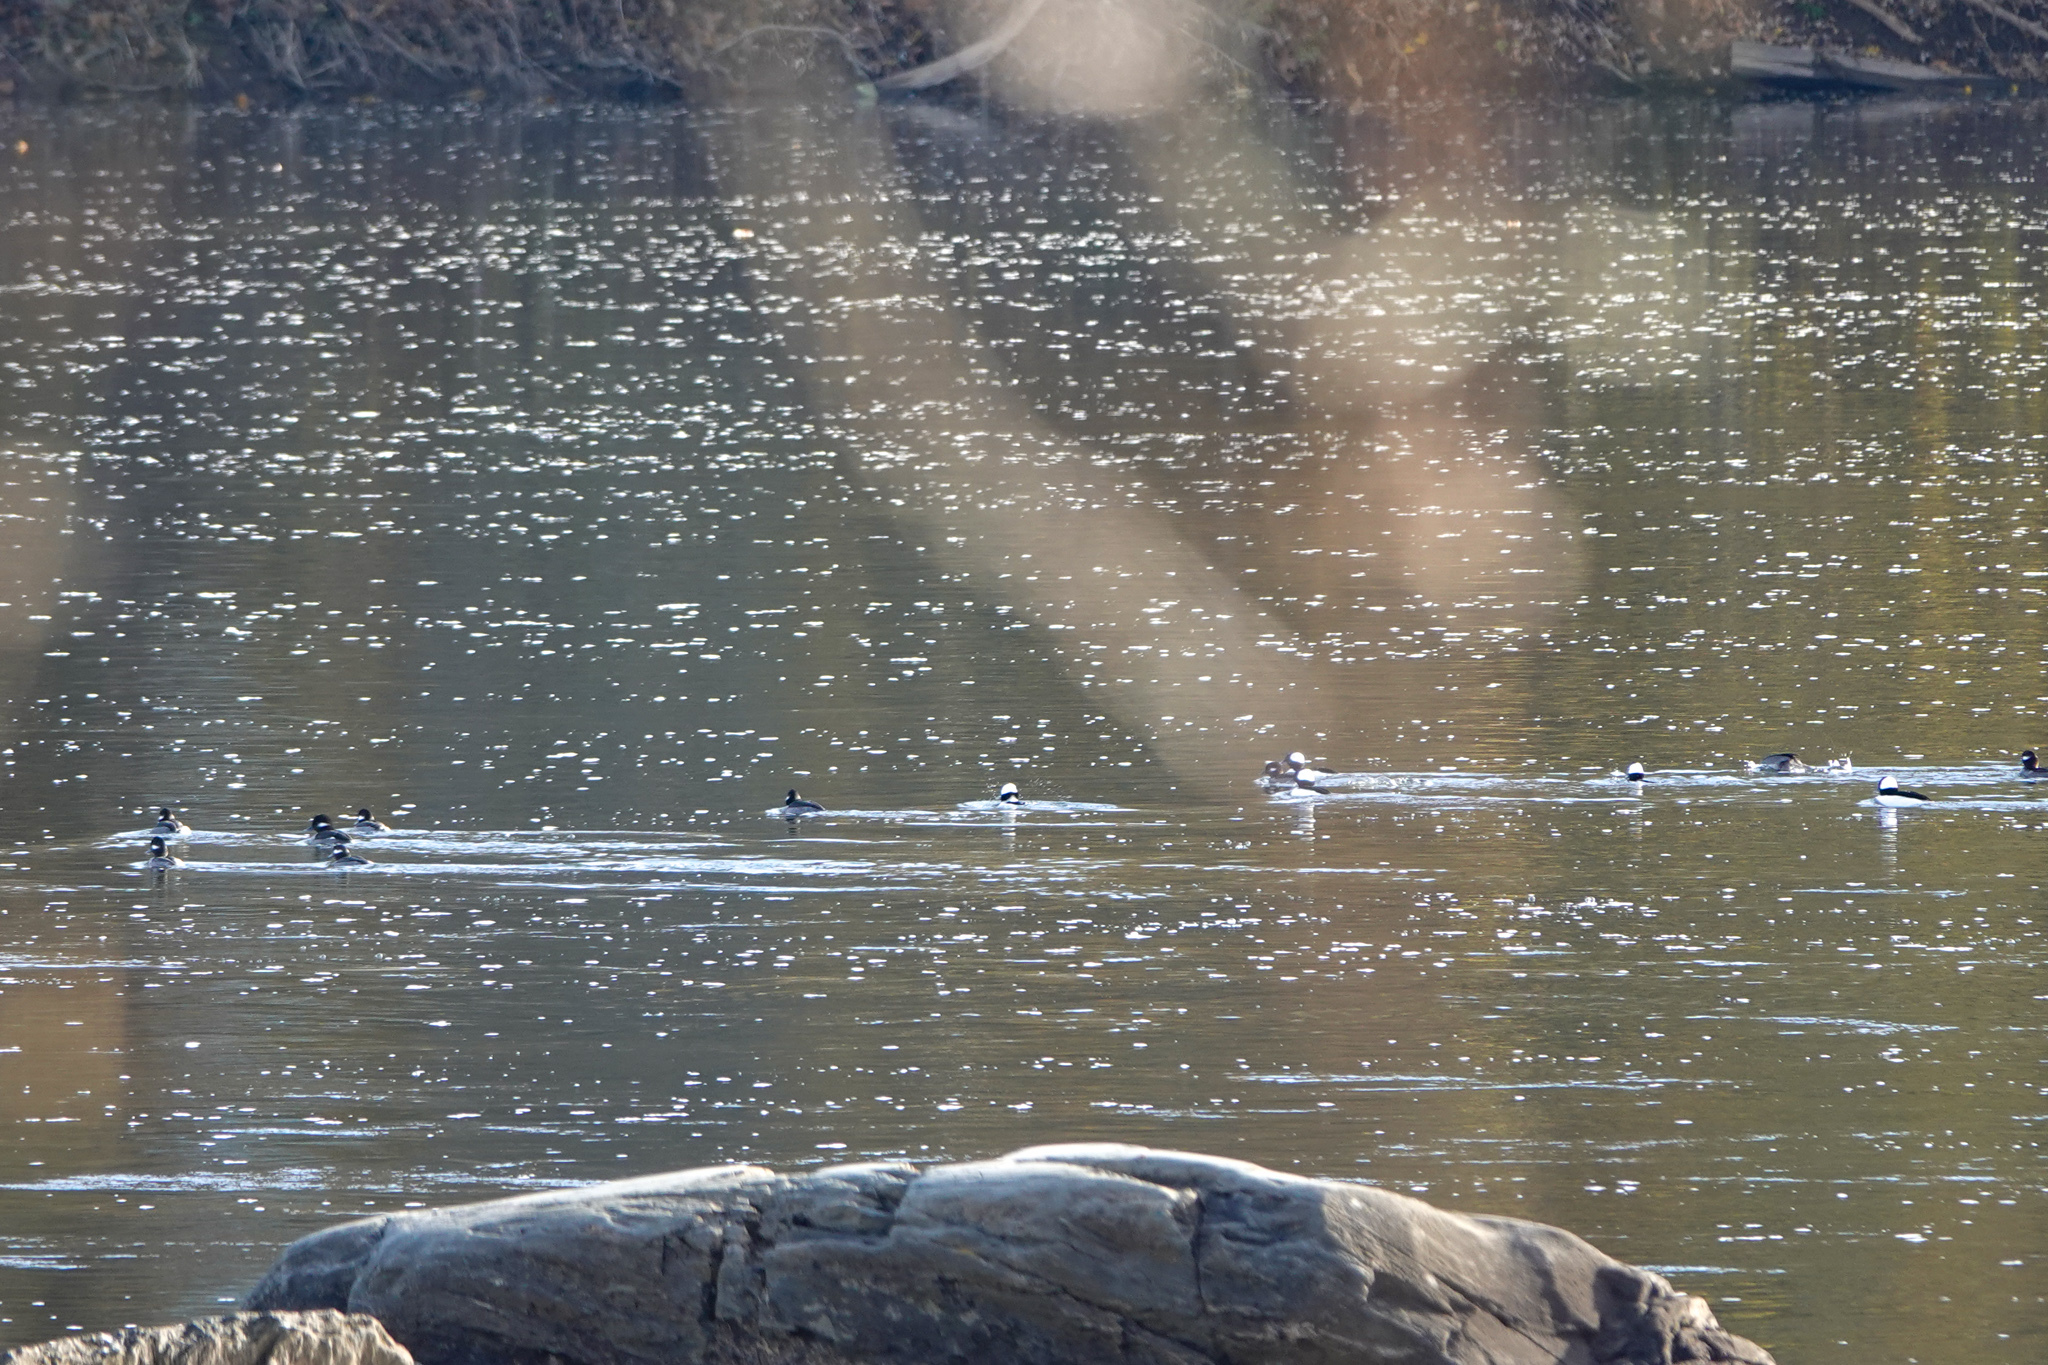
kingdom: Animalia
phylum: Chordata
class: Aves
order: Anseriformes
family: Anatidae
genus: Bucephala
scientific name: Bucephala albeola
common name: Bufflehead
